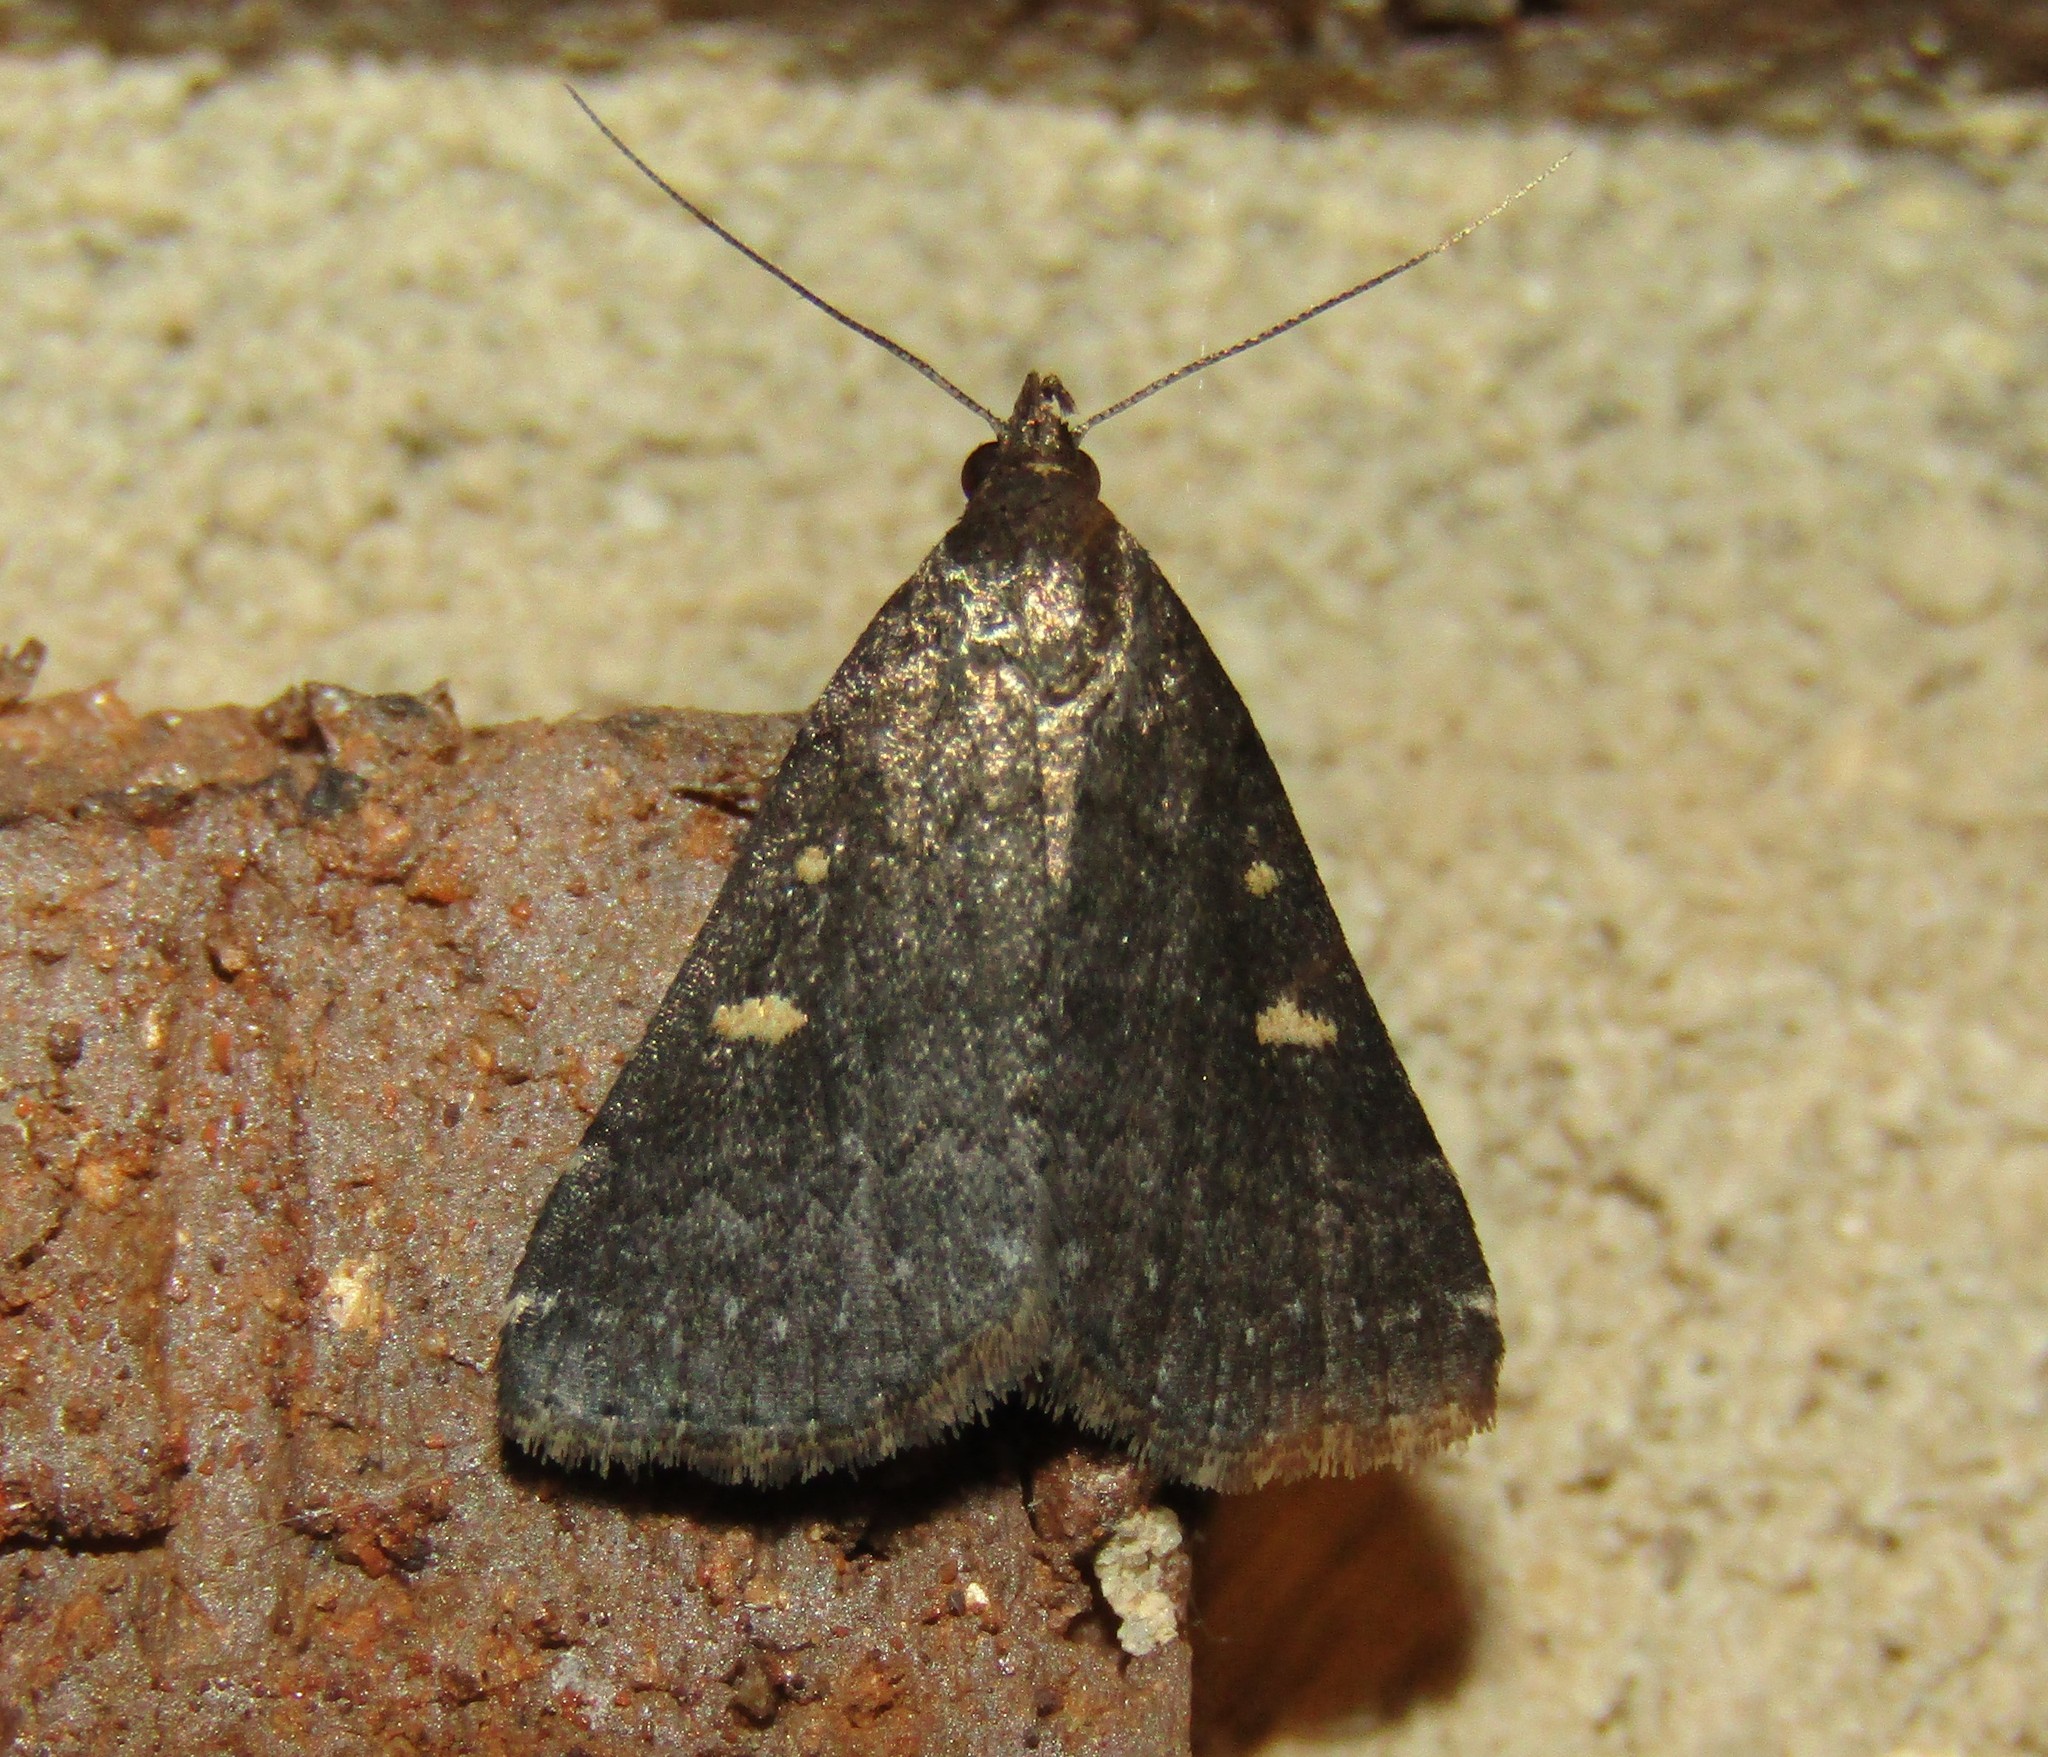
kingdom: Animalia
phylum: Arthropoda
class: Insecta
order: Lepidoptera
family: Erebidae
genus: Tetanolita
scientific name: Tetanolita mynesalis
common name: Smoky tetanolita moth
